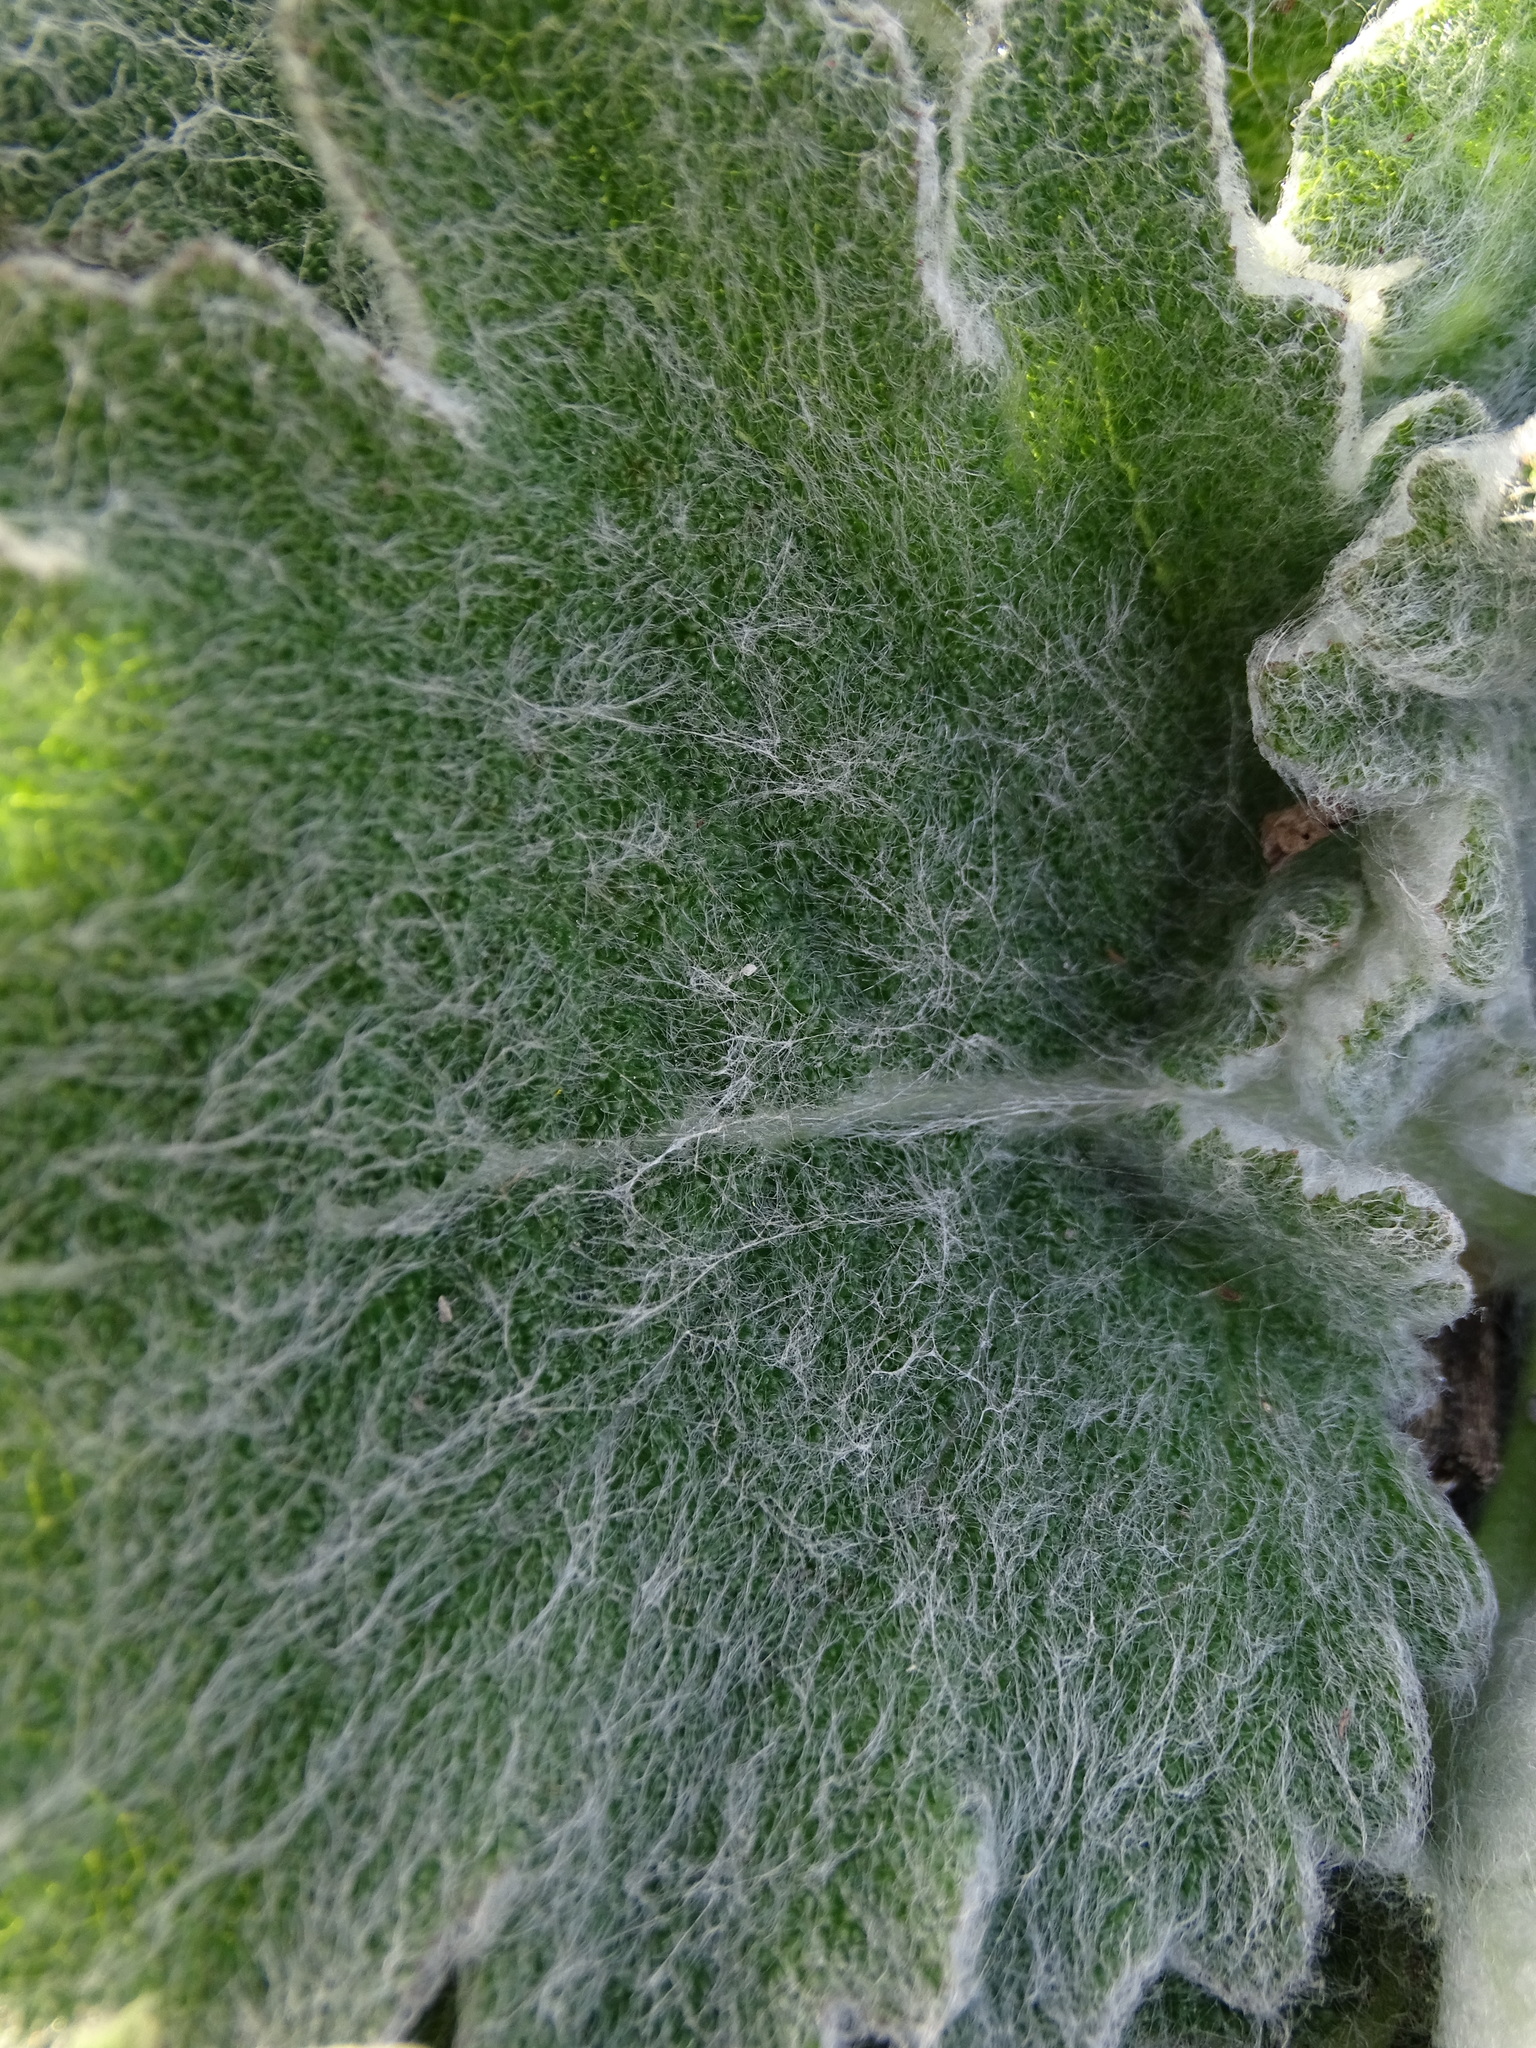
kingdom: Plantae
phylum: Tracheophyta
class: Magnoliopsida
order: Lamiales
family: Lamiaceae
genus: Salvia
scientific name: Salvia aethiopis
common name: Mediterranean sage
